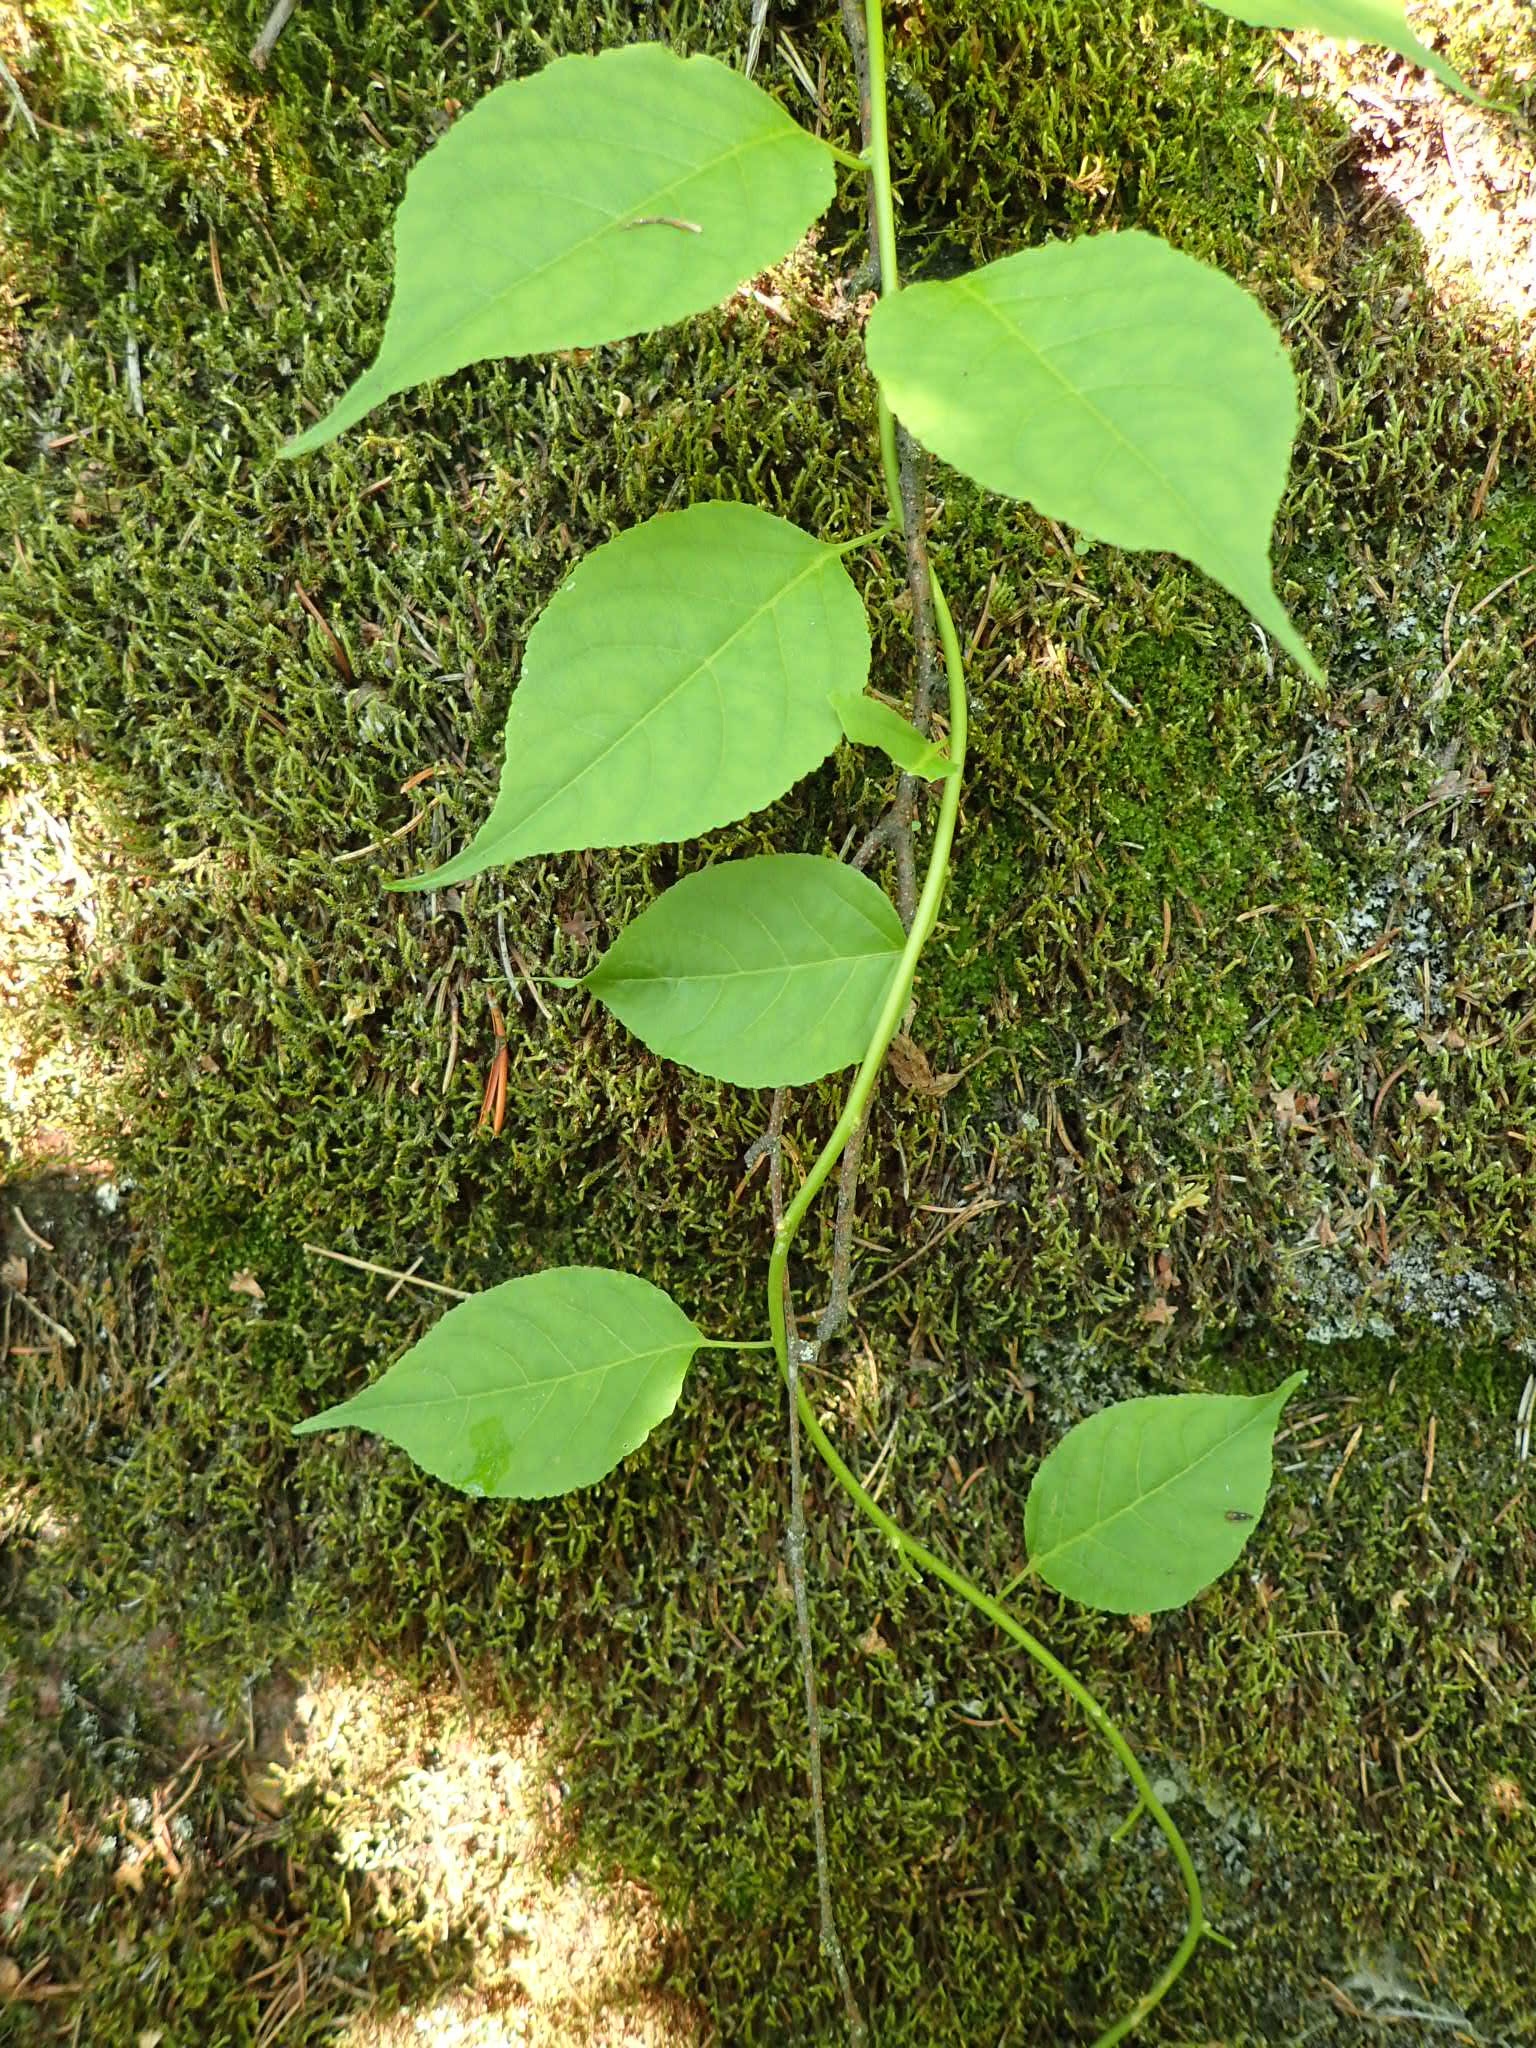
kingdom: Plantae
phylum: Tracheophyta
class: Magnoliopsida
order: Celastrales
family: Celastraceae
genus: Celastrus
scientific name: Celastrus scandens
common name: American bittersweet
